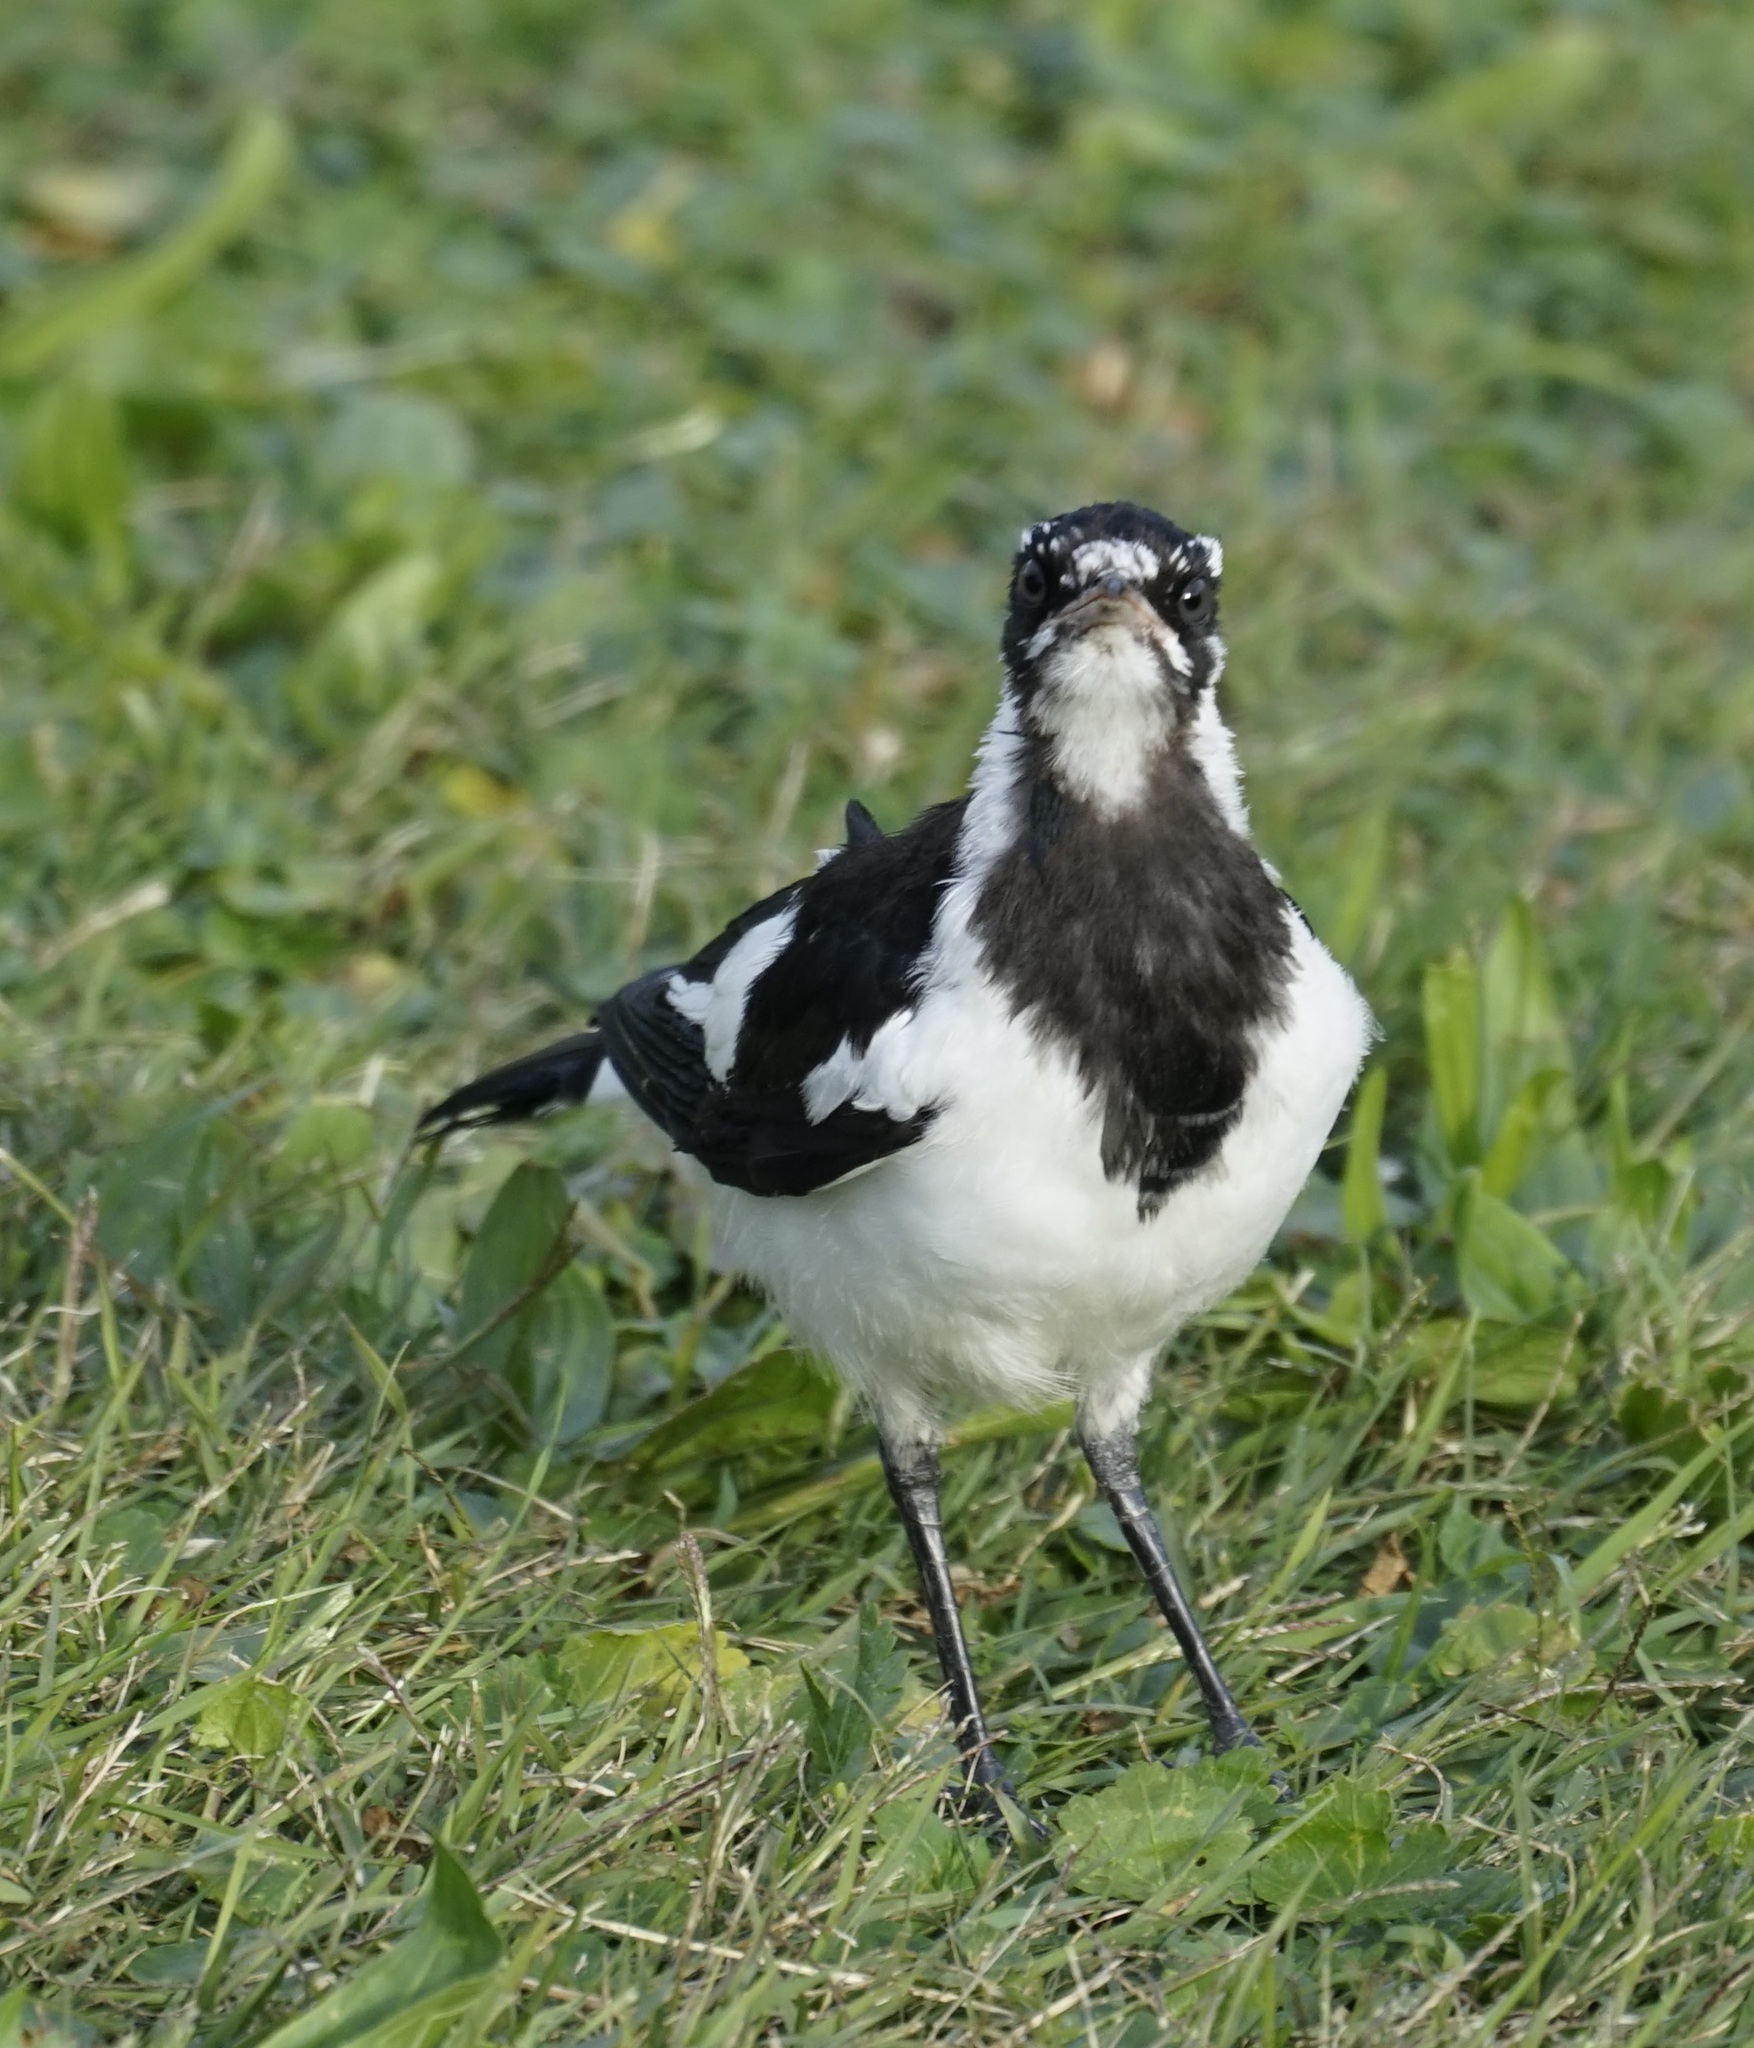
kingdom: Animalia
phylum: Chordata
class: Aves
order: Passeriformes
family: Monarchidae
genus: Grallina
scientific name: Grallina cyanoleuca
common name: Magpie-lark
